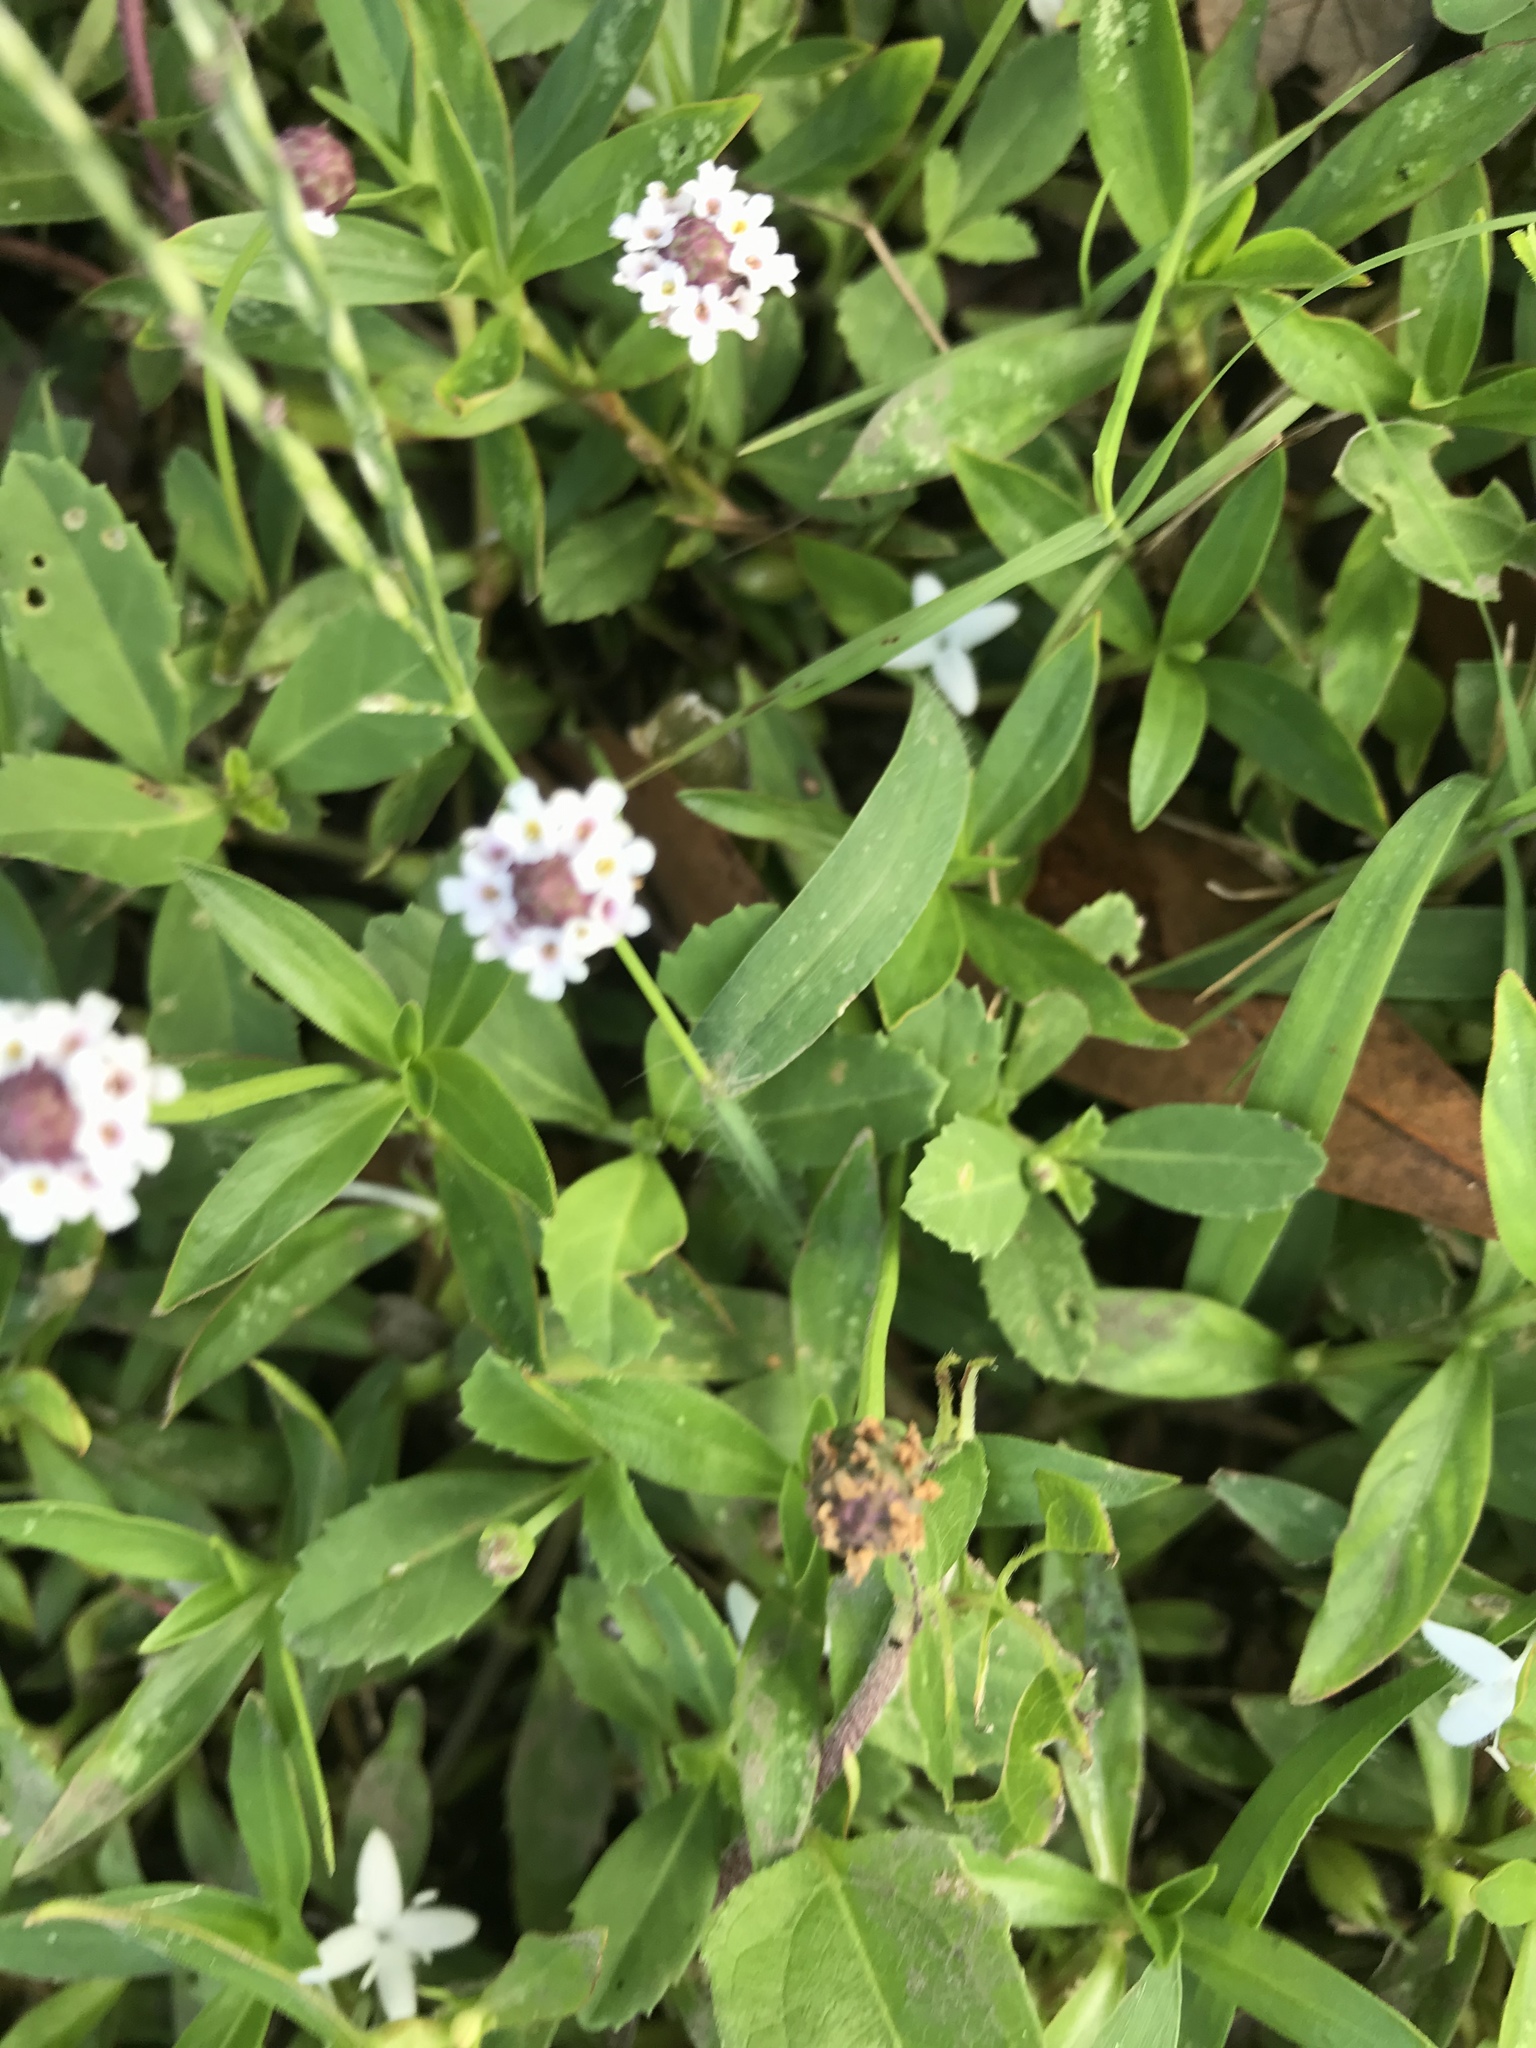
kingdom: Plantae
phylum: Tracheophyta
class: Magnoliopsida
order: Lamiales
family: Verbenaceae
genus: Phyla
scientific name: Phyla nodiflora
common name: Frogfruit
